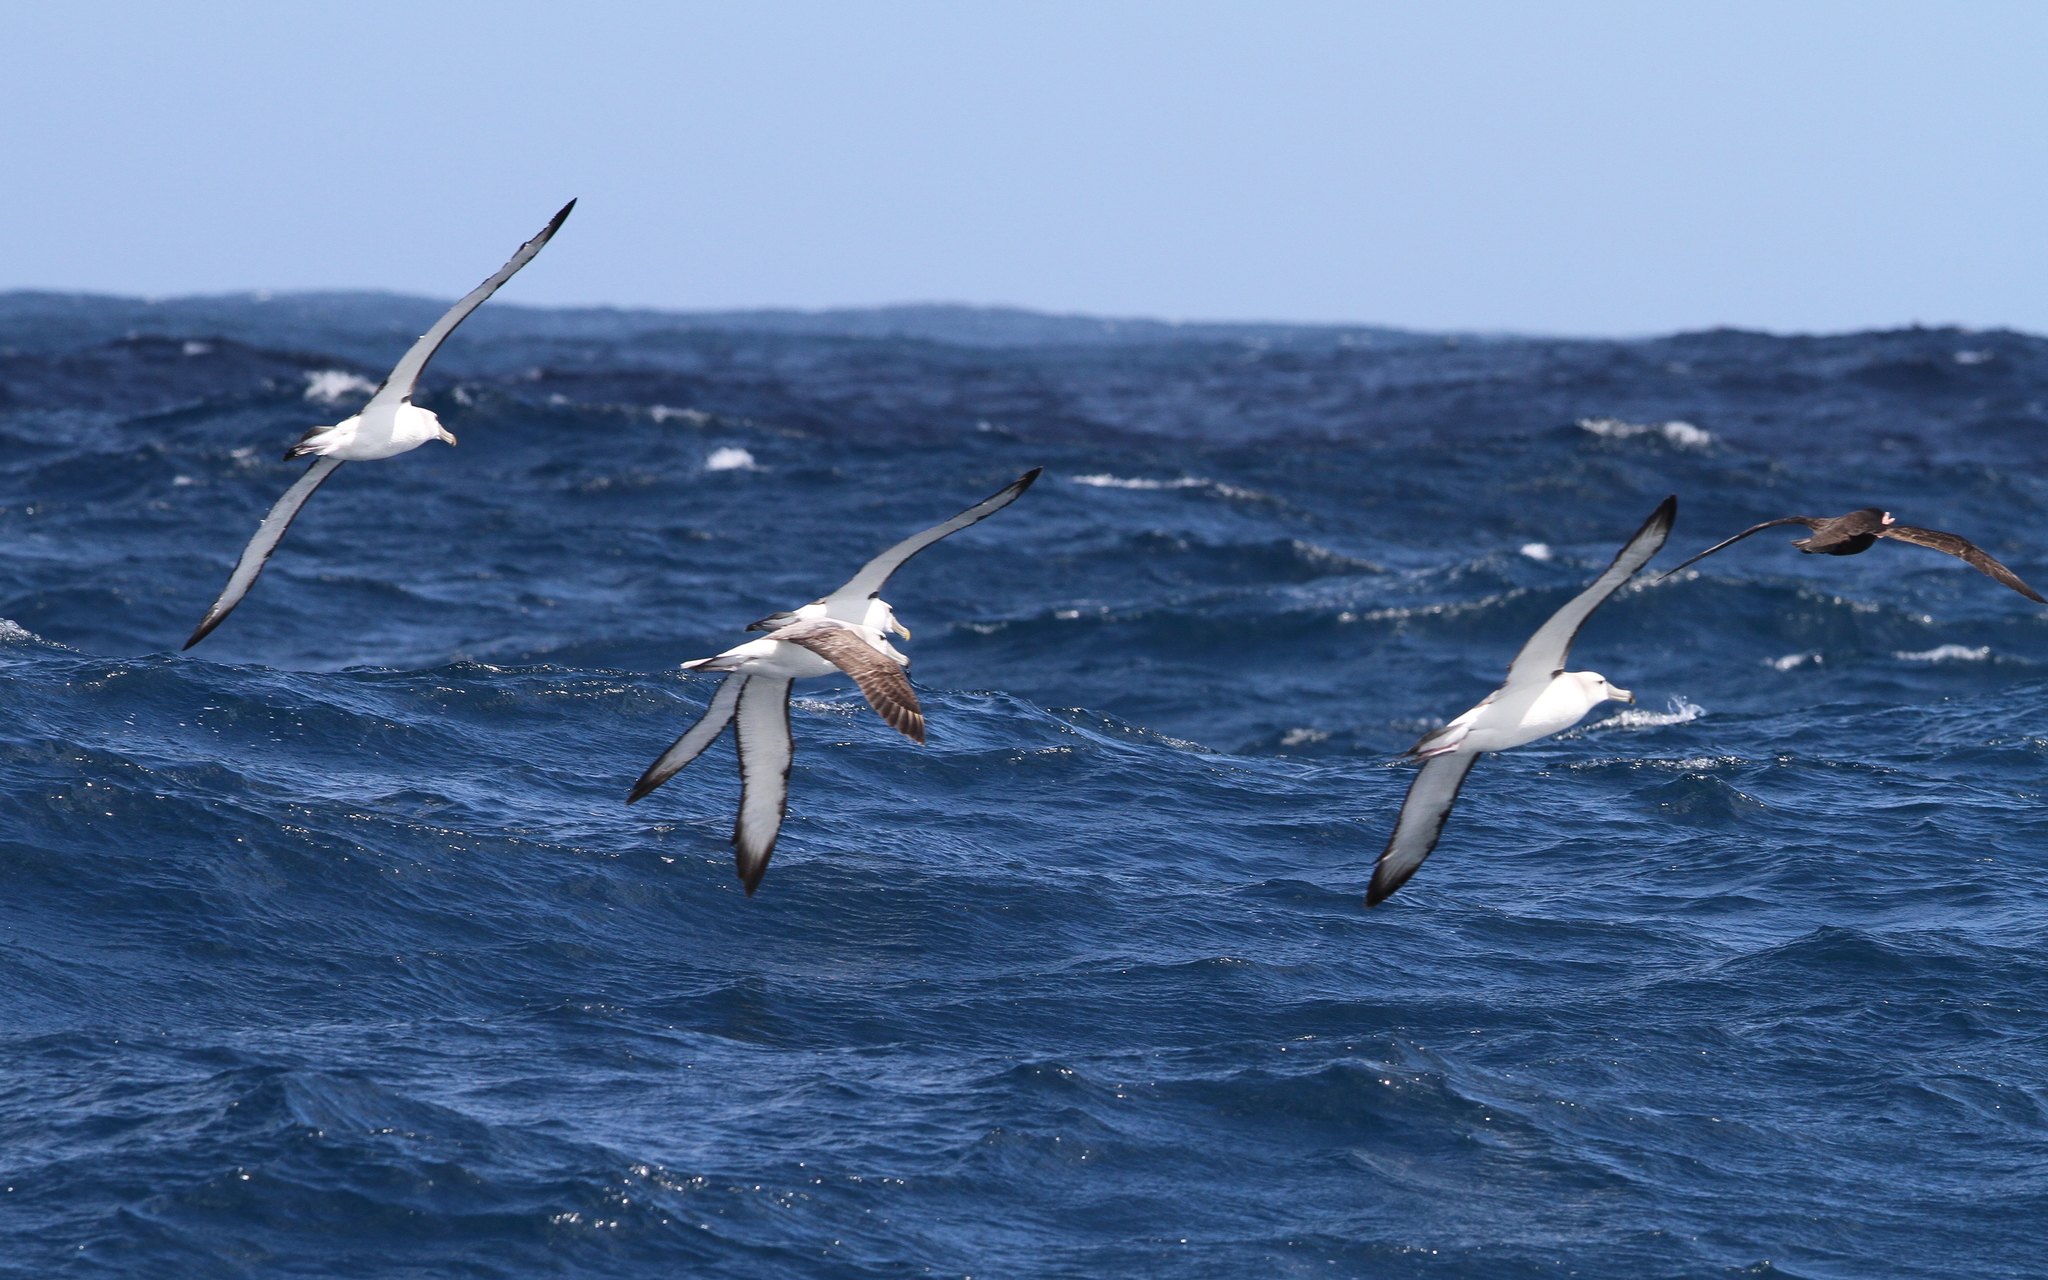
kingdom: Animalia
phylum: Chordata
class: Aves
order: Procellariiformes
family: Diomedeidae
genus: Thalassarche
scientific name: Thalassarche cauta
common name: Shy albatross
